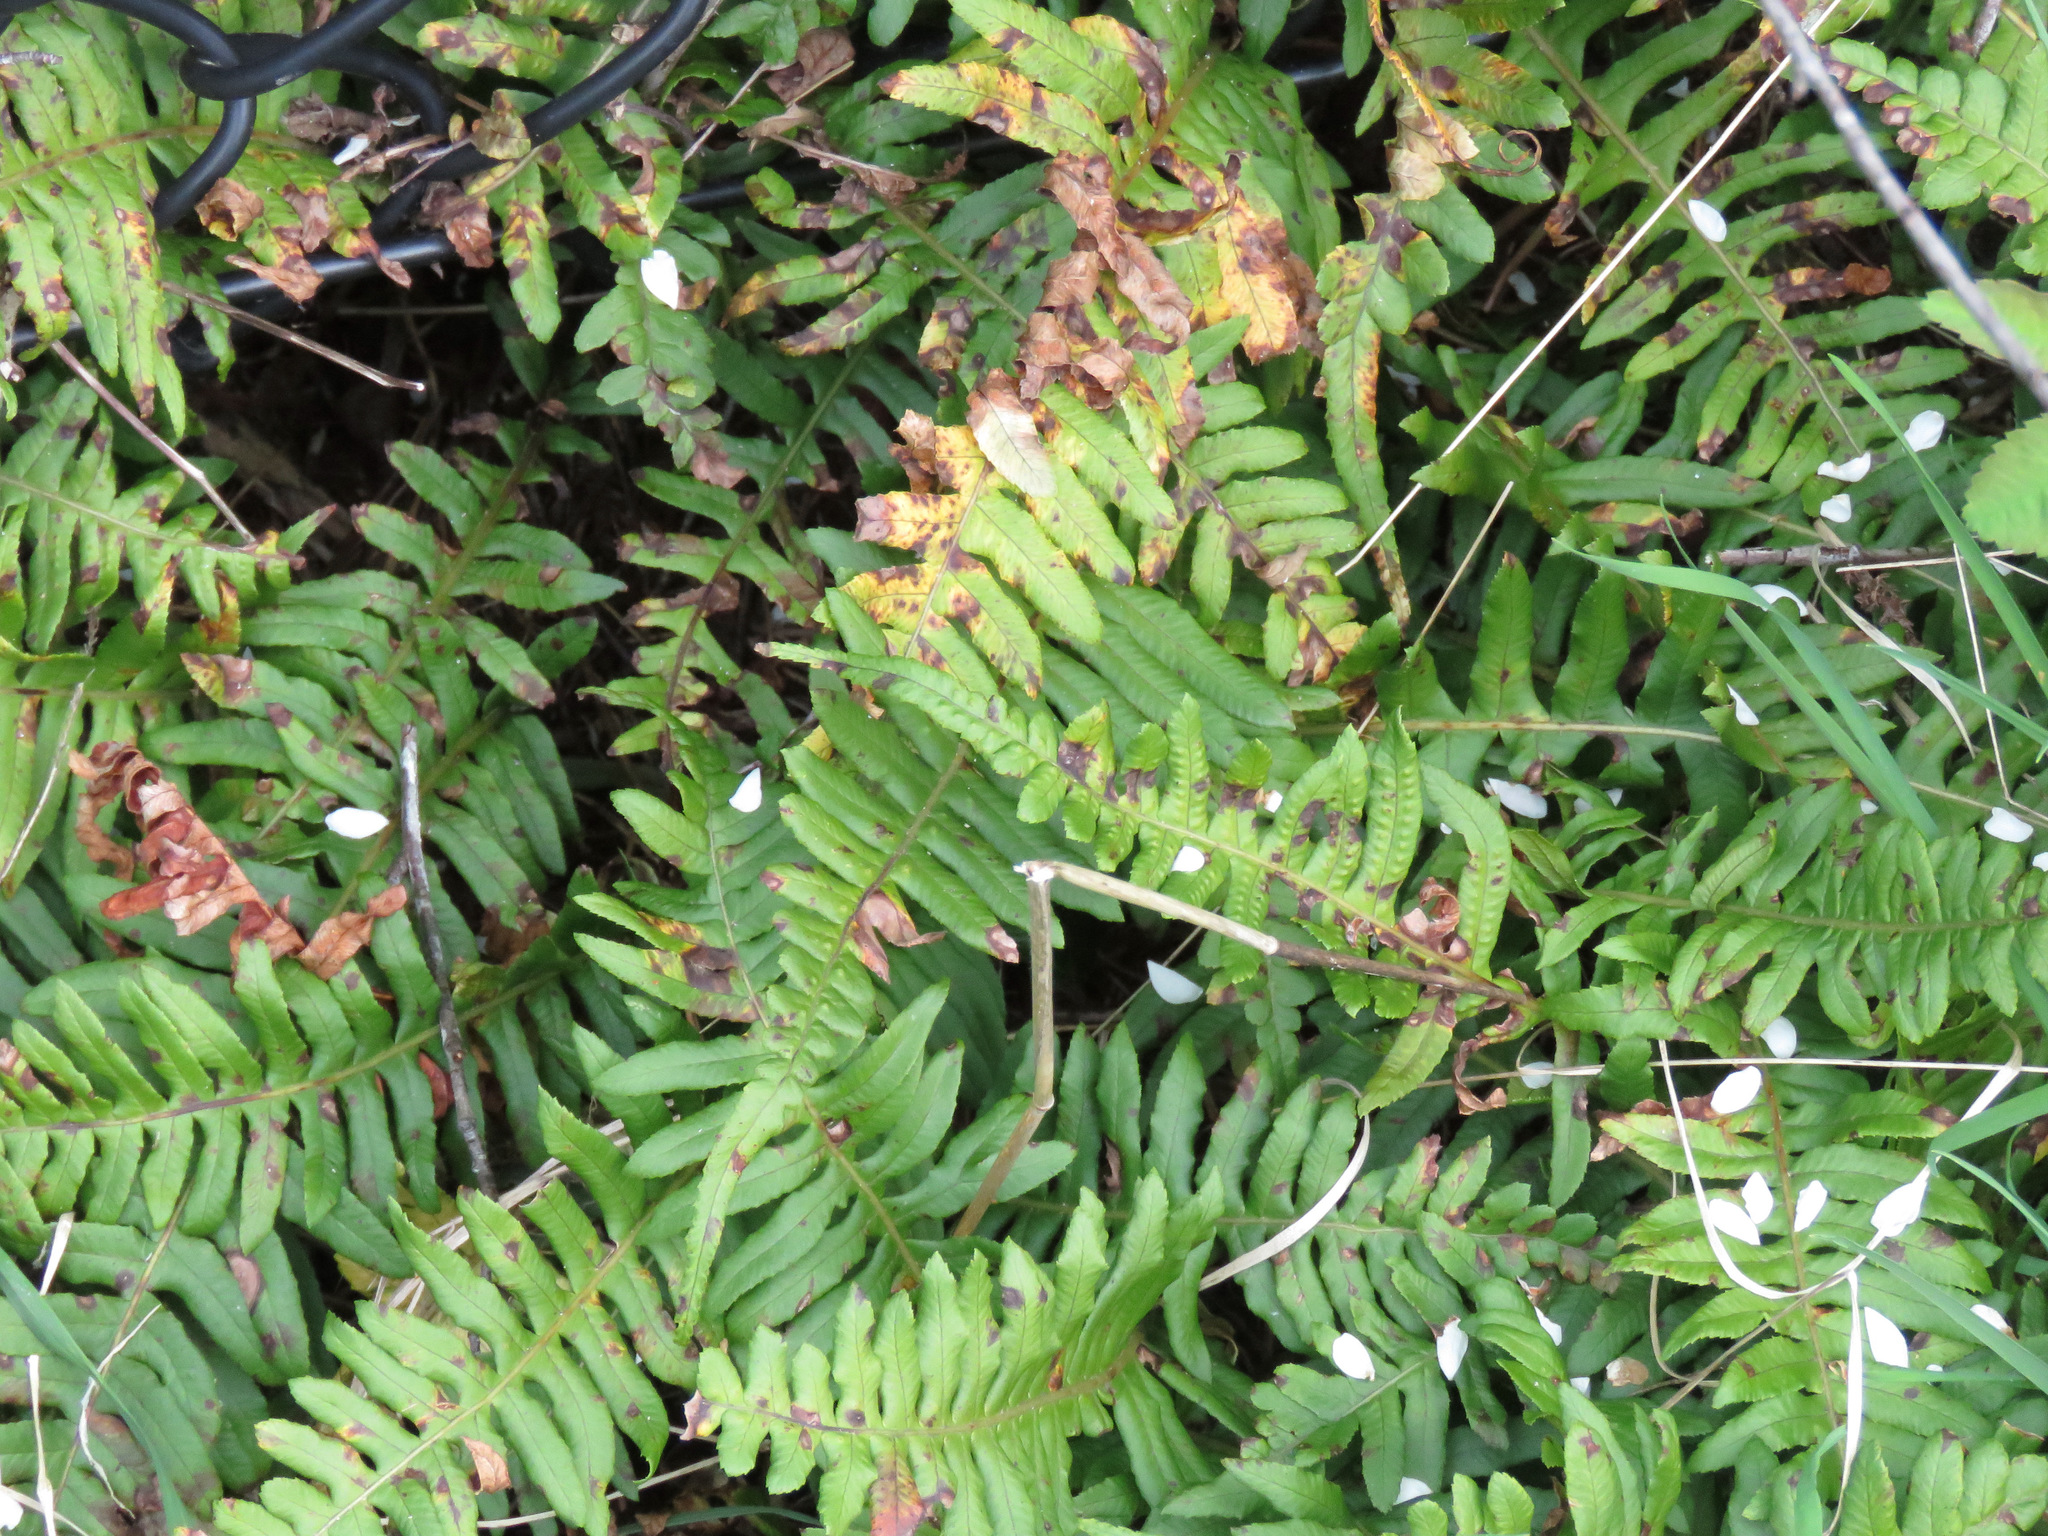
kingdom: Plantae
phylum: Tracheophyta
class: Polypodiopsida
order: Polypodiales
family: Polypodiaceae
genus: Polypodium
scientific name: Polypodium glycyrrhiza
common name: Licorice fern
